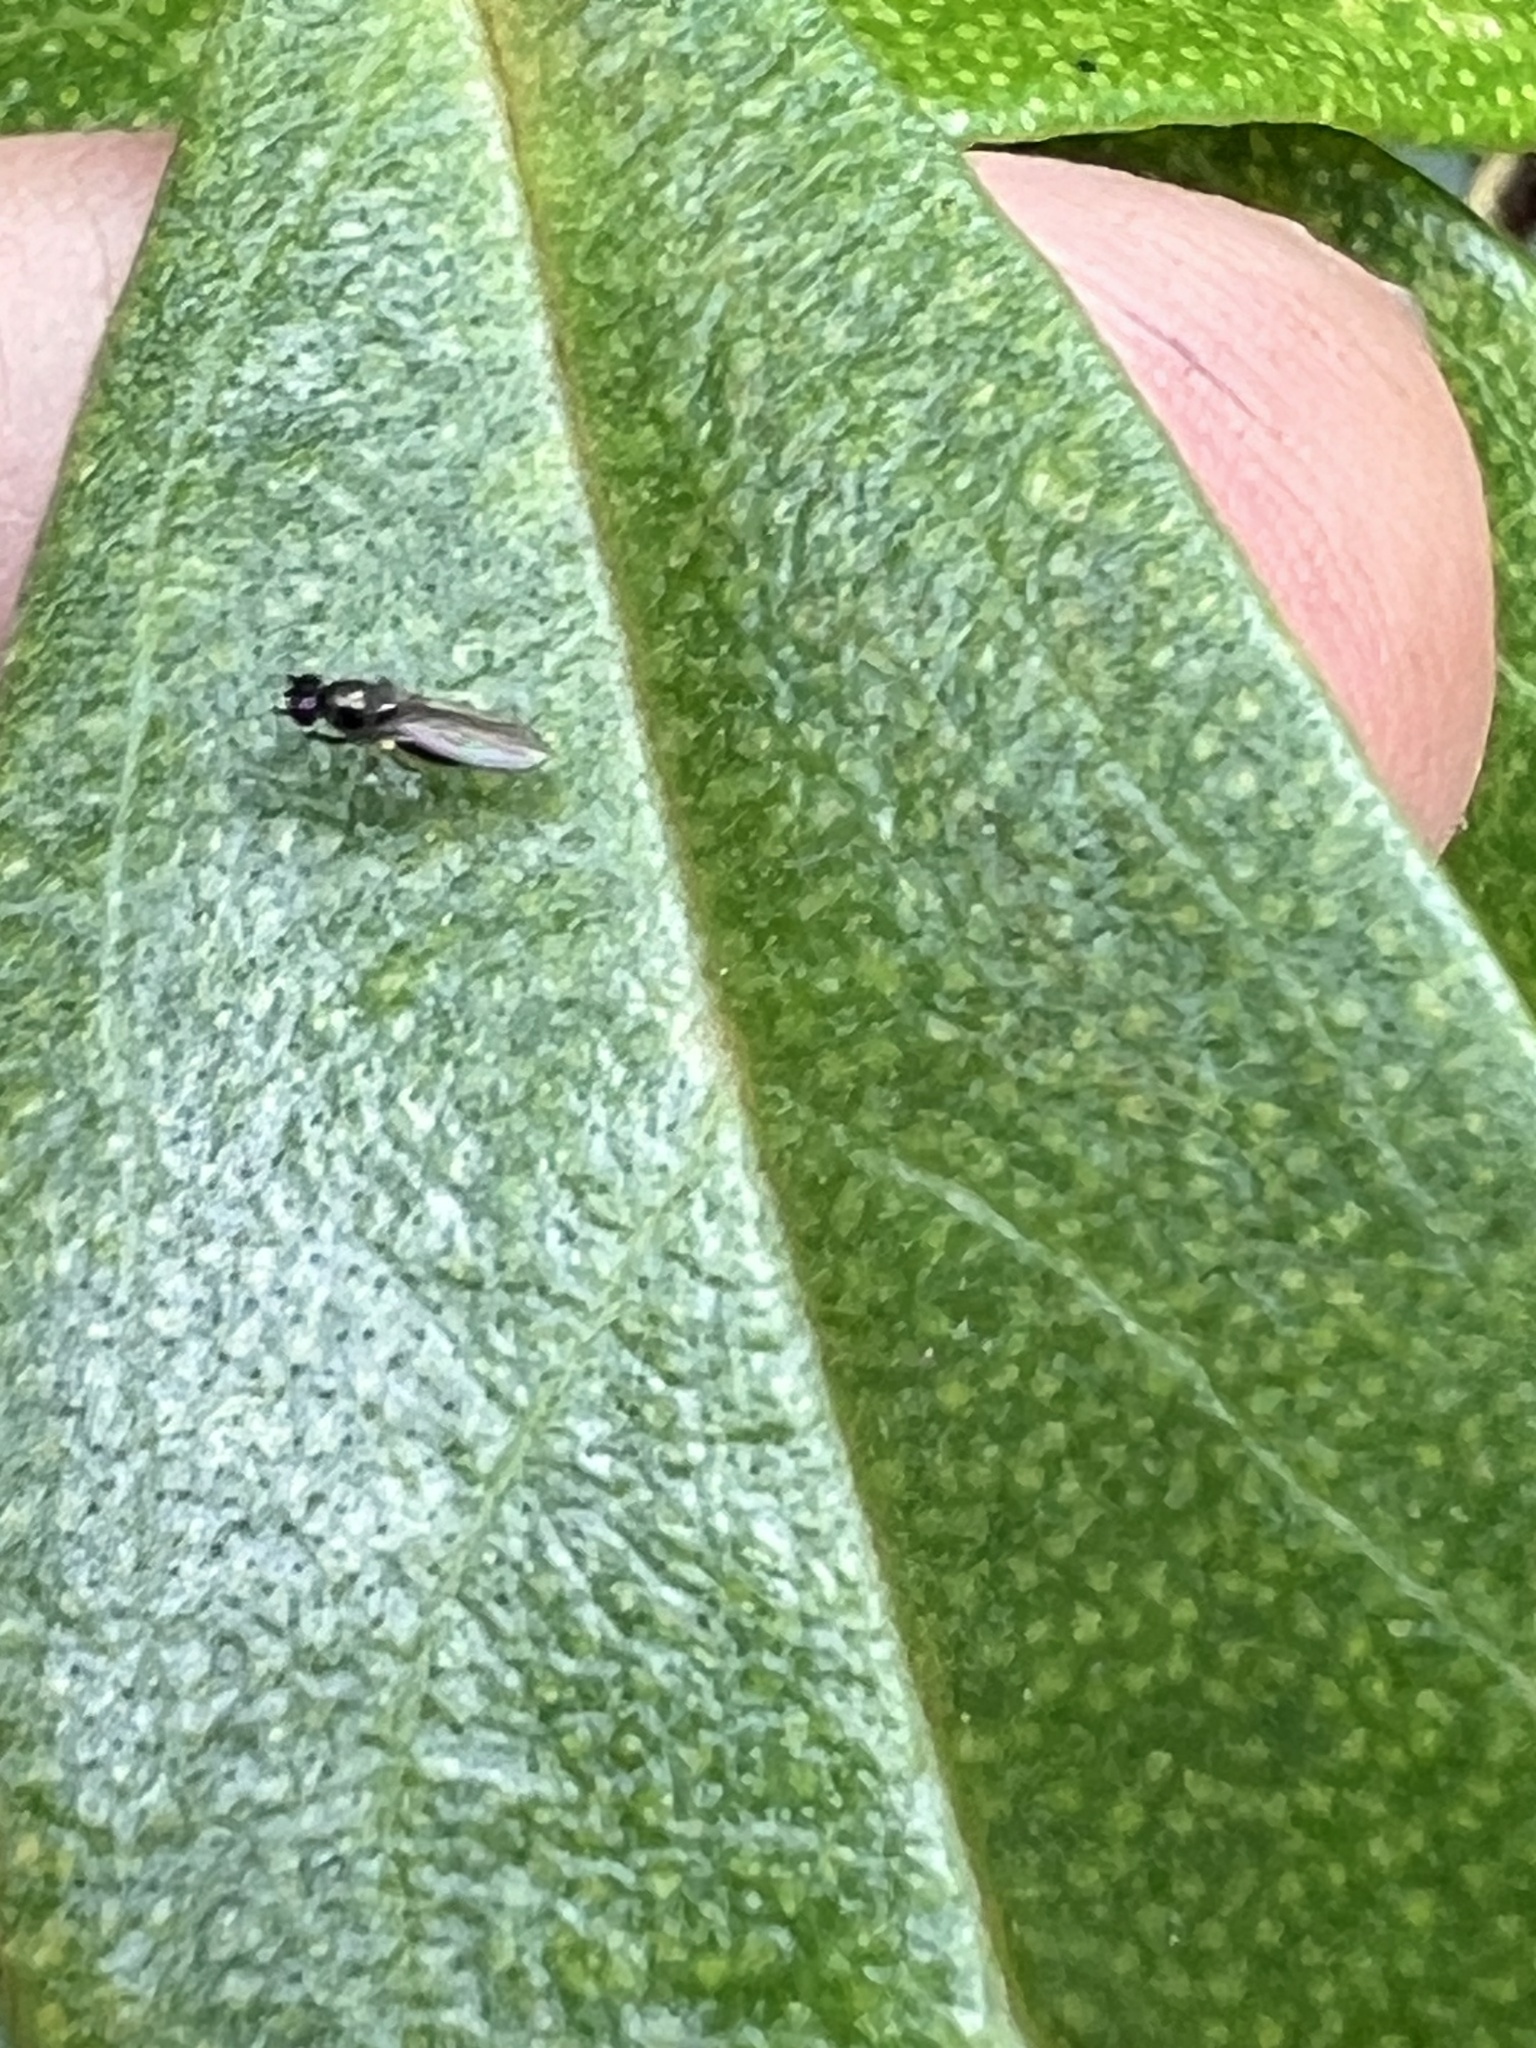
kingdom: Animalia
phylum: Arthropoda
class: Insecta
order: Diptera
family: Ephydridae
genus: Hydrellia
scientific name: Hydrellia tritici
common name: Shore fly
